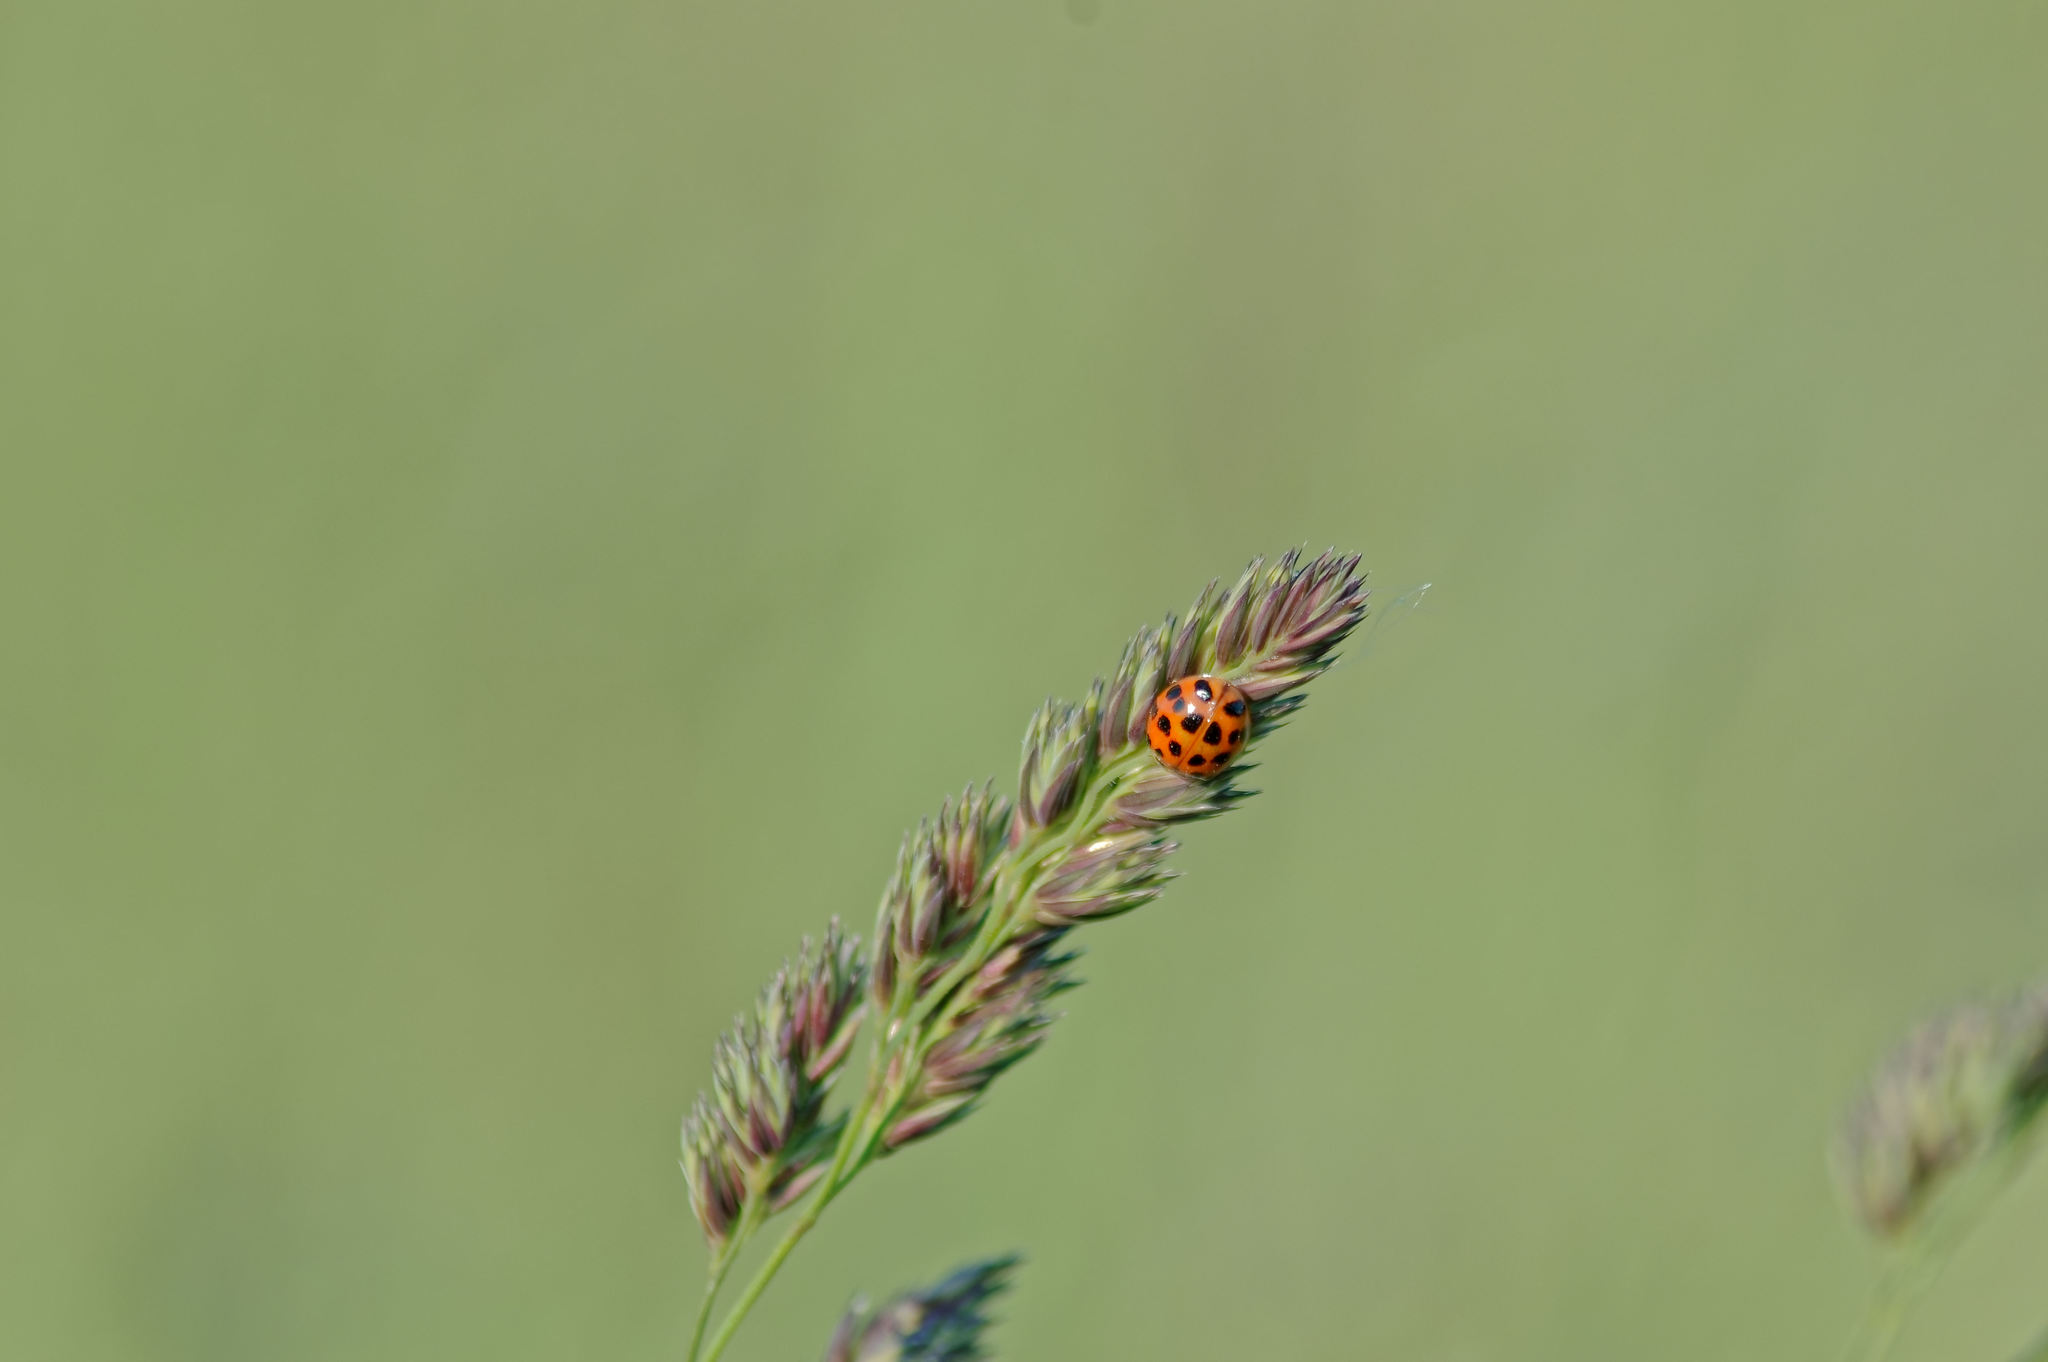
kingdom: Animalia
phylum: Arthropoda
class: Insecta
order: Coleoptera
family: Coccinellidae
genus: Harmonia
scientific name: Harmonia axyridis
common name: Harlequin ladybird
